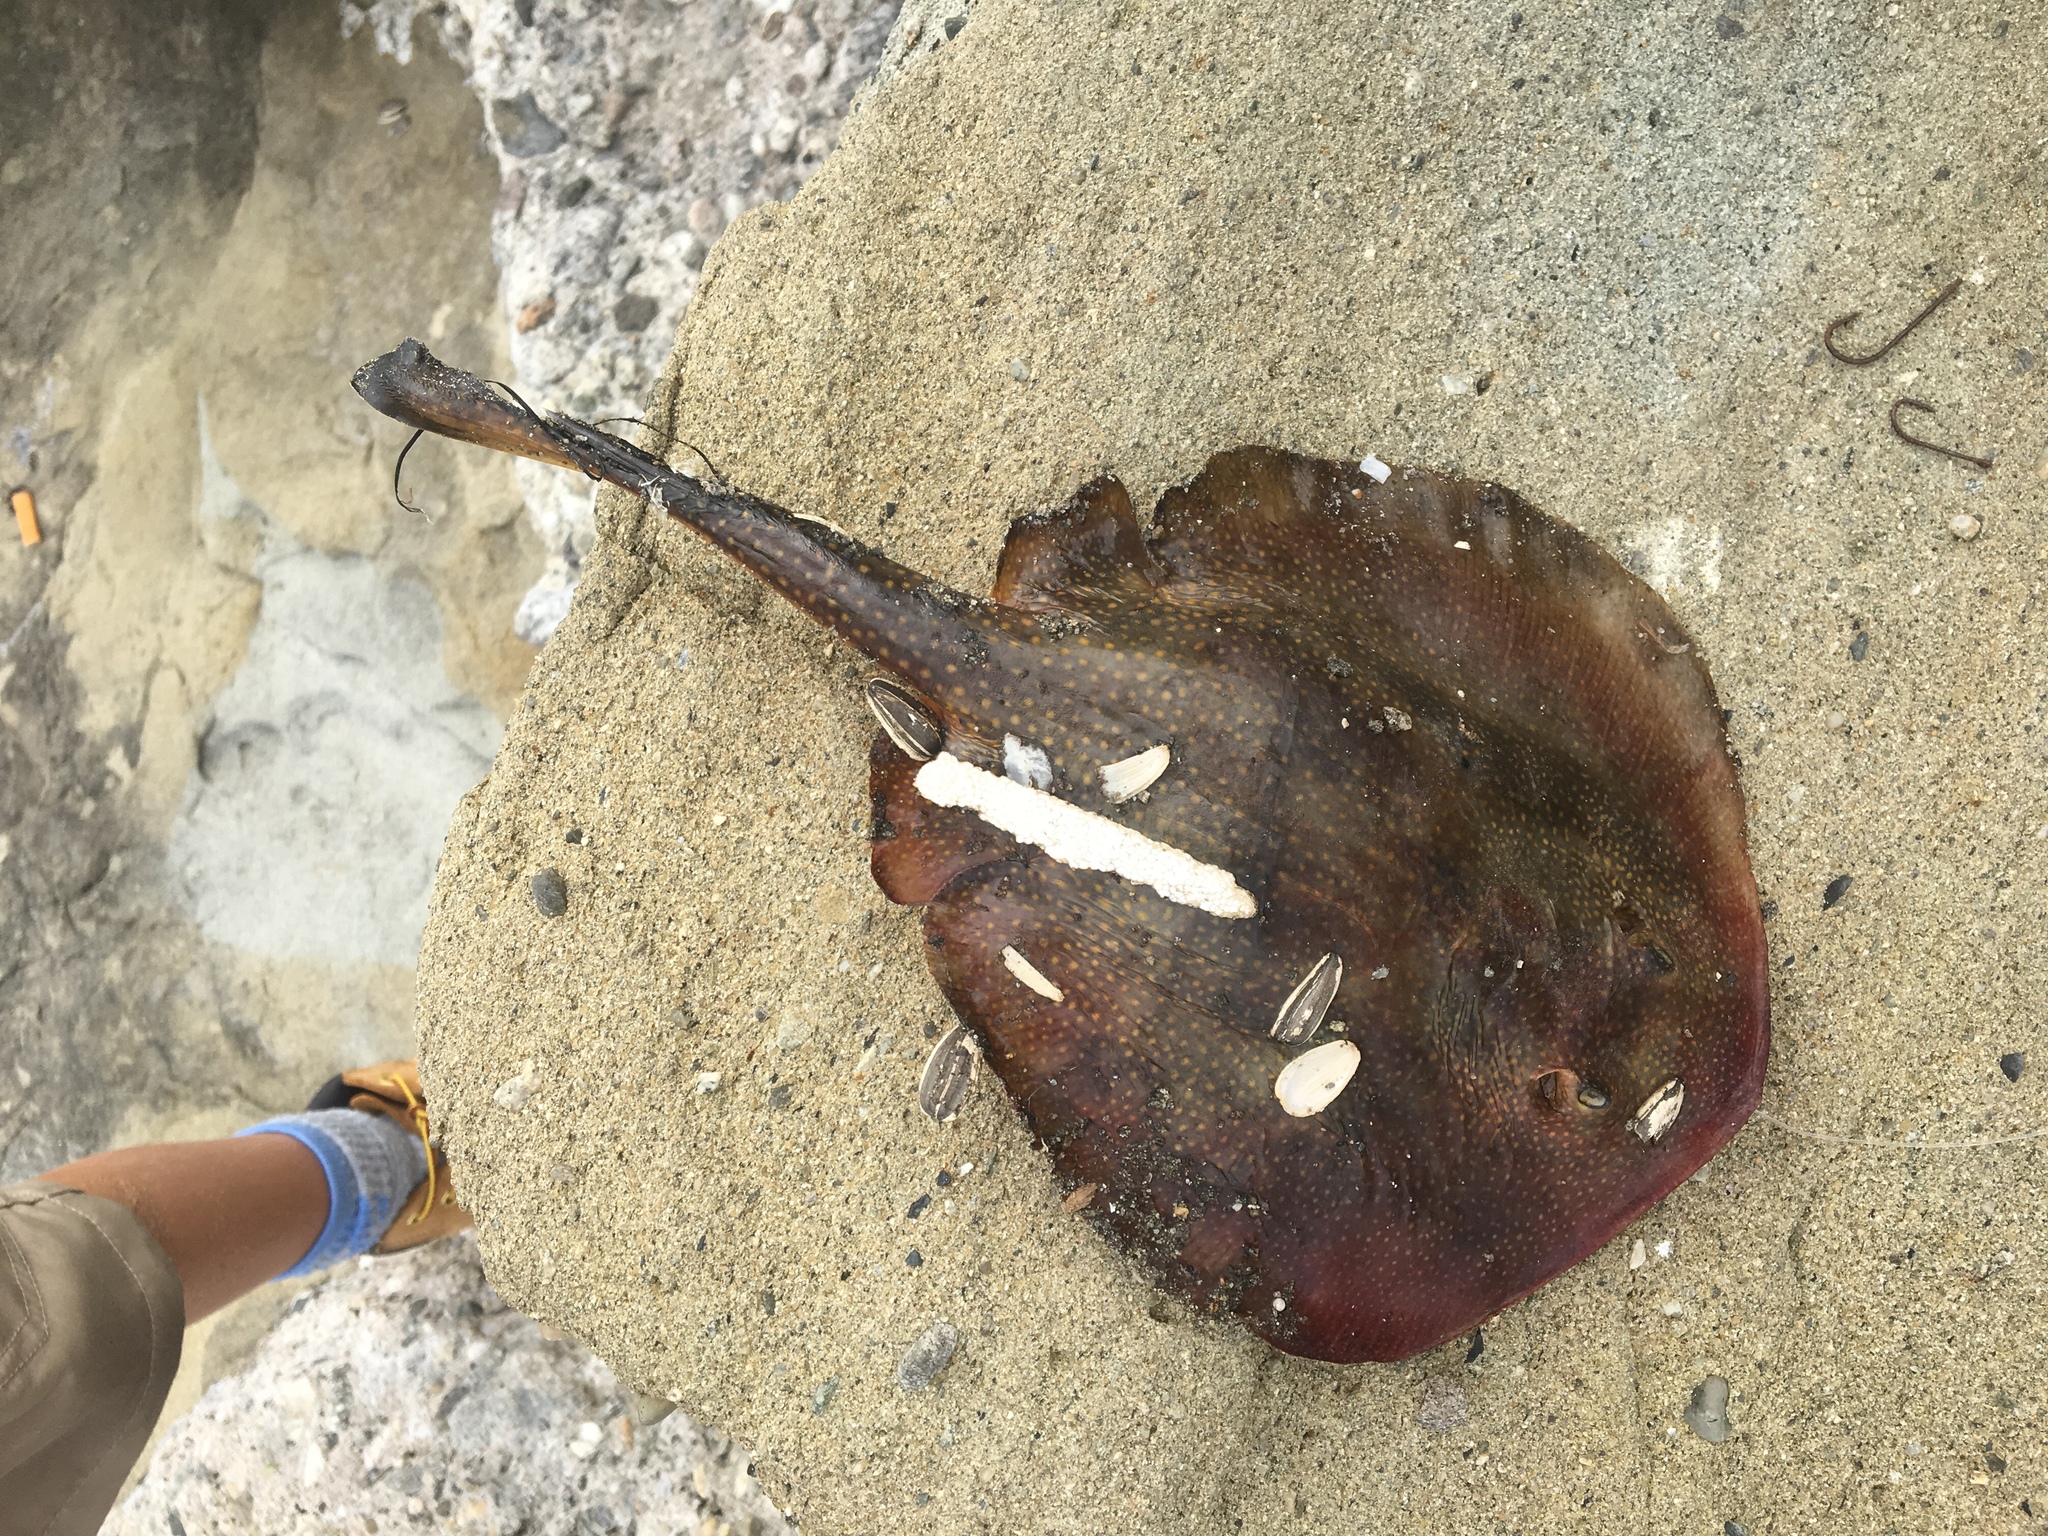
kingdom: Animalia
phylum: Chordata
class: Elasmobranchii
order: Myliobatiformes
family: Urolophidae
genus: Urolophus
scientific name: Urolophus halleri
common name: Round stingray
